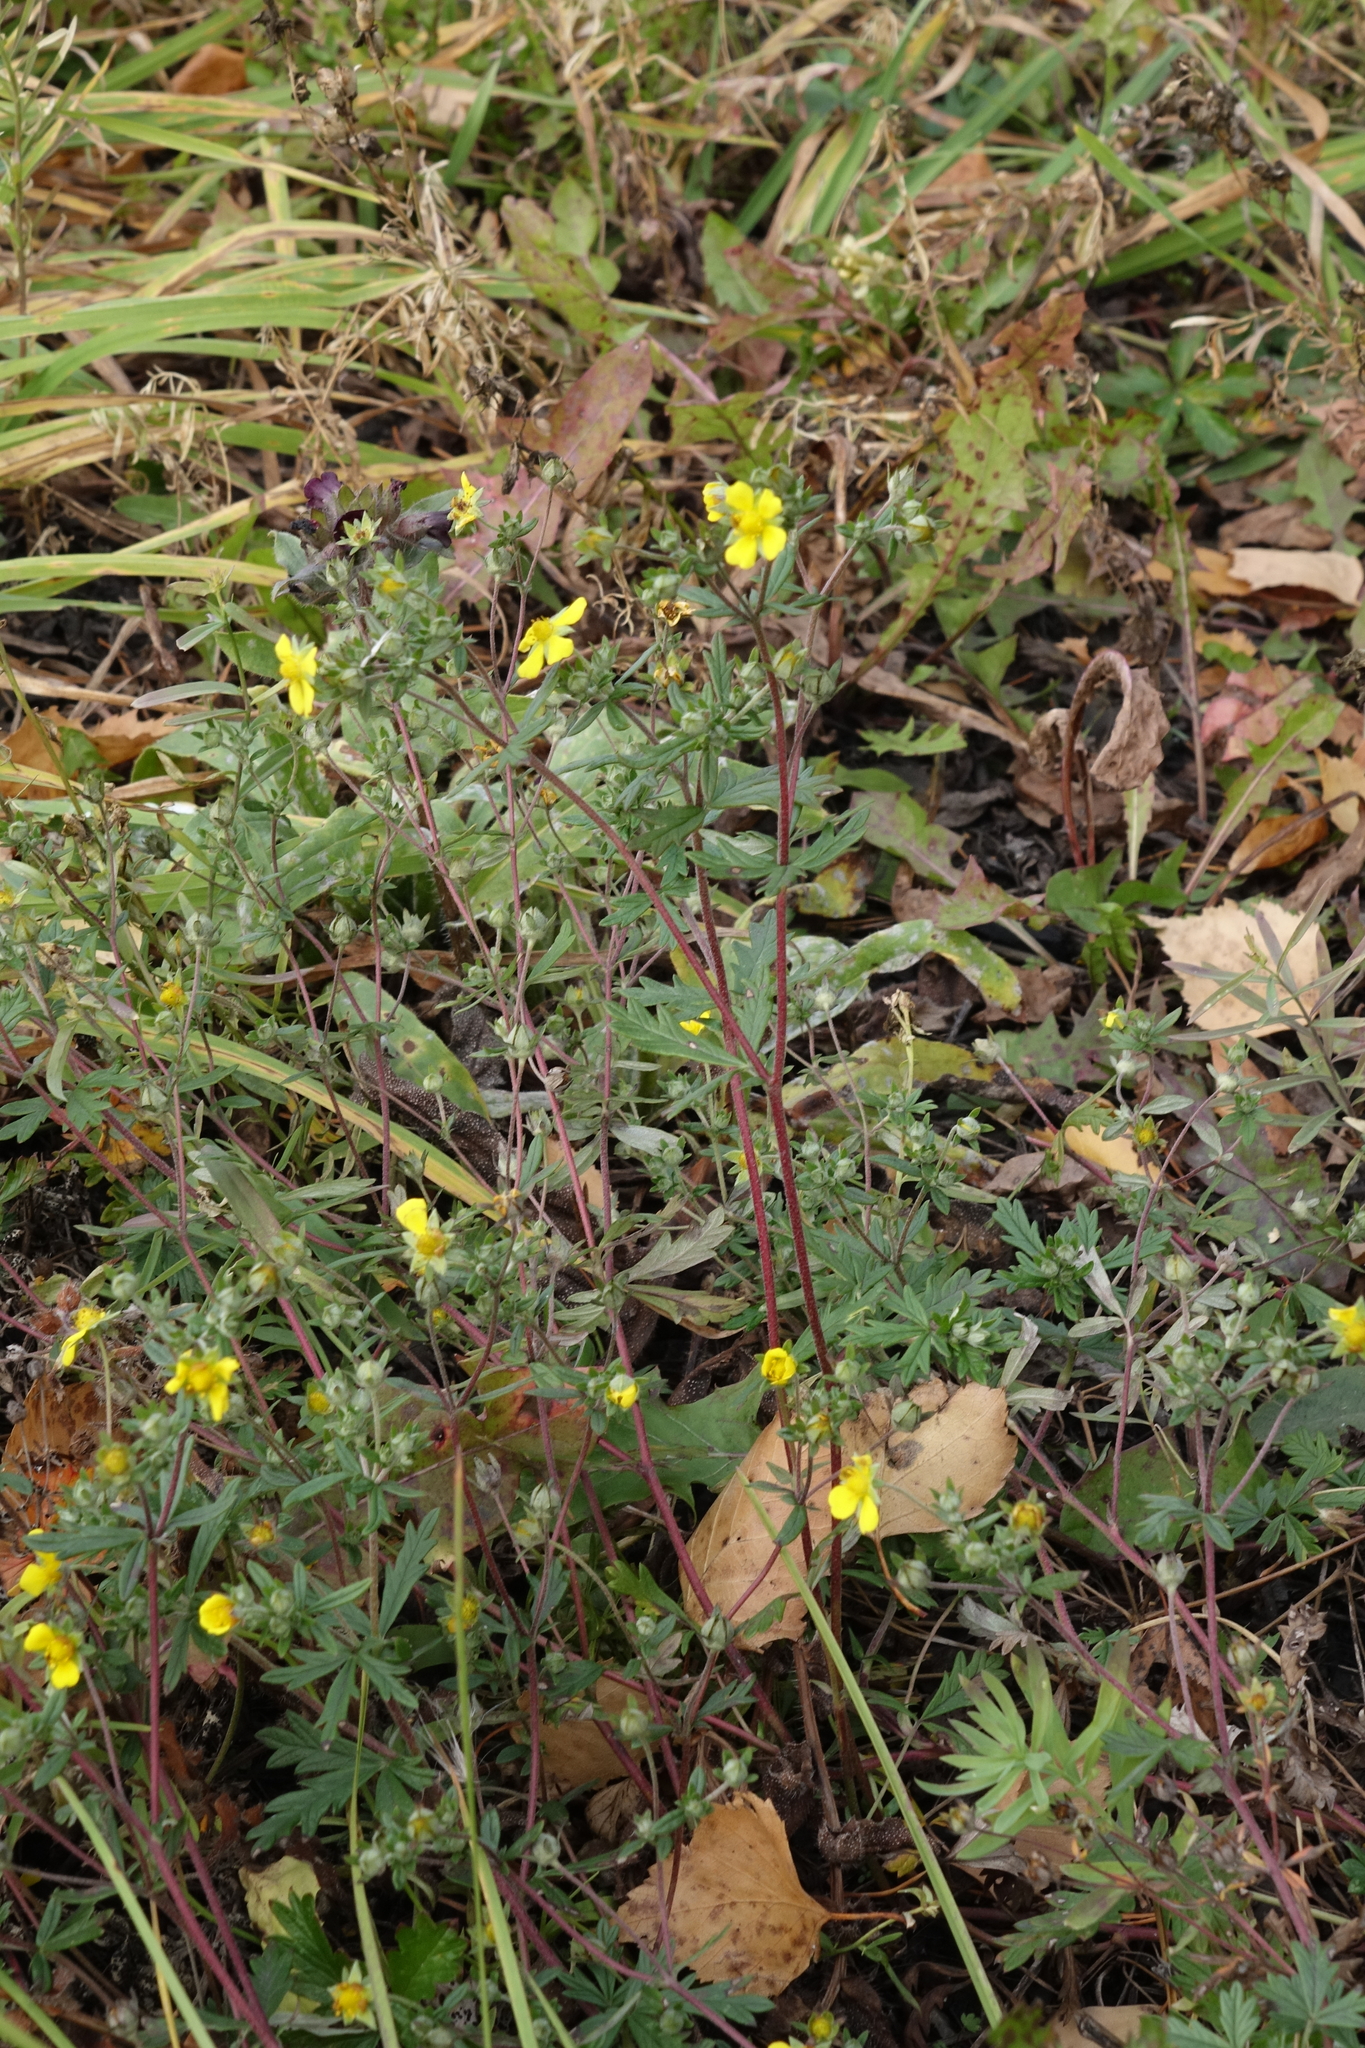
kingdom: Plantae
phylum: Tracheophyta
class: Magnoliopsida
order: Rosales
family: Rosaceae
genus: Potentilla
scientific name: Potentilla argentea
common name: Hoary cinquefoil
